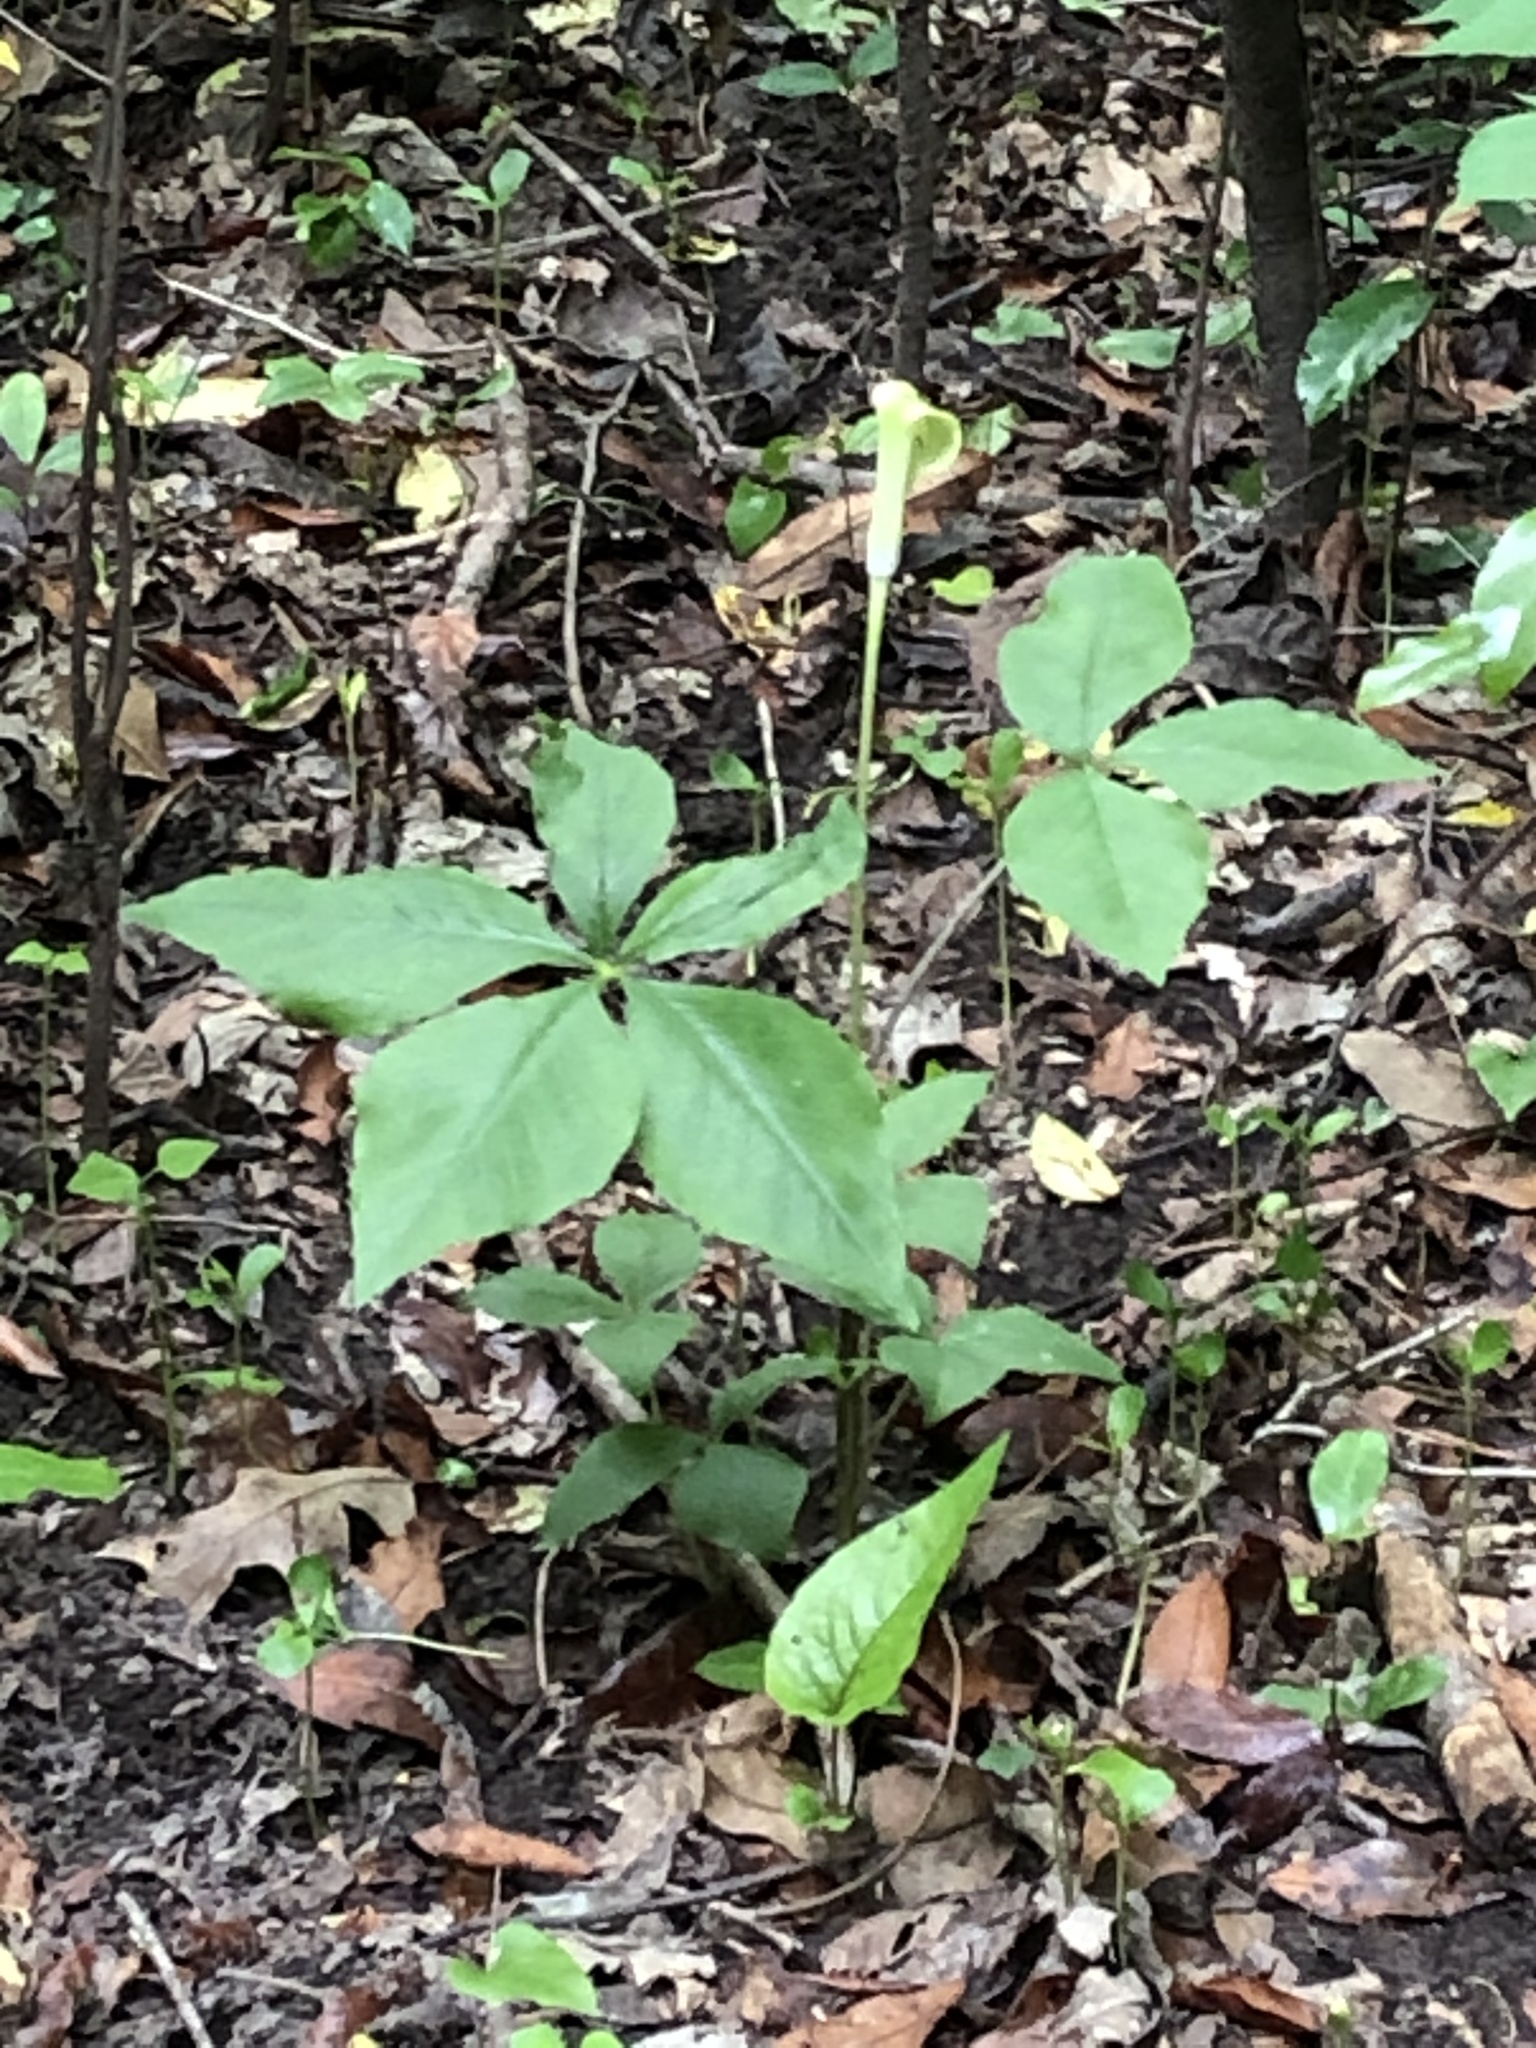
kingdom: Plantae
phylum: Tracheophyta
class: Liliopsida
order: Alismatales
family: Araceae
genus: Arisaema
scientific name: Arisaema quinatum
